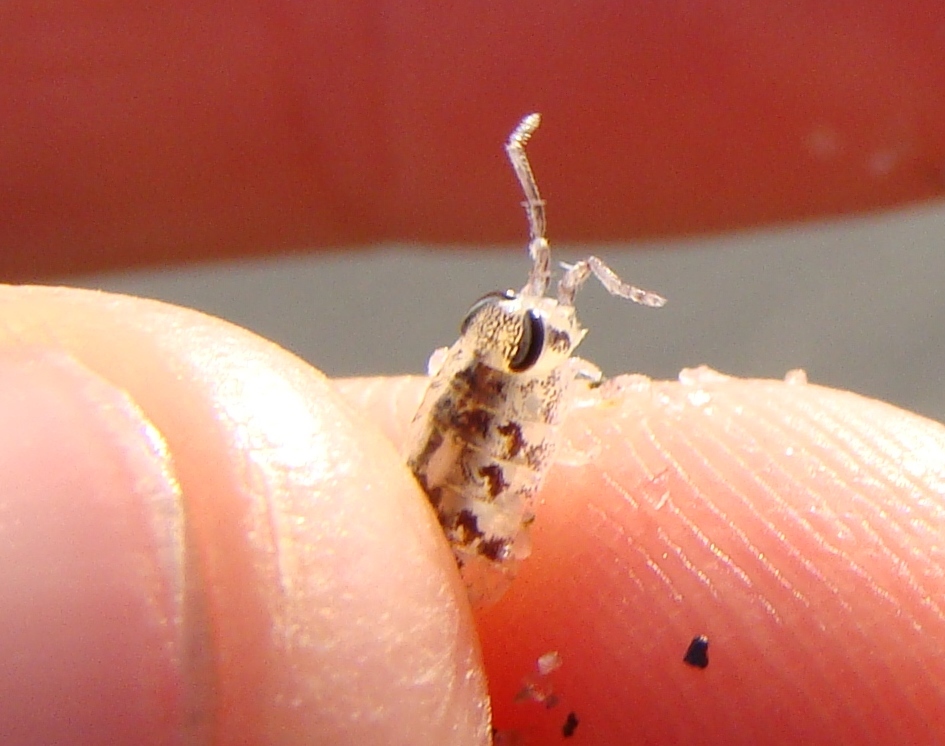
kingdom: Animalia
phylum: Arthropoda
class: Malacostraca
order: Isopoda
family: Scyphacidae
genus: Scyphax
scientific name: Scyphax ornatus
